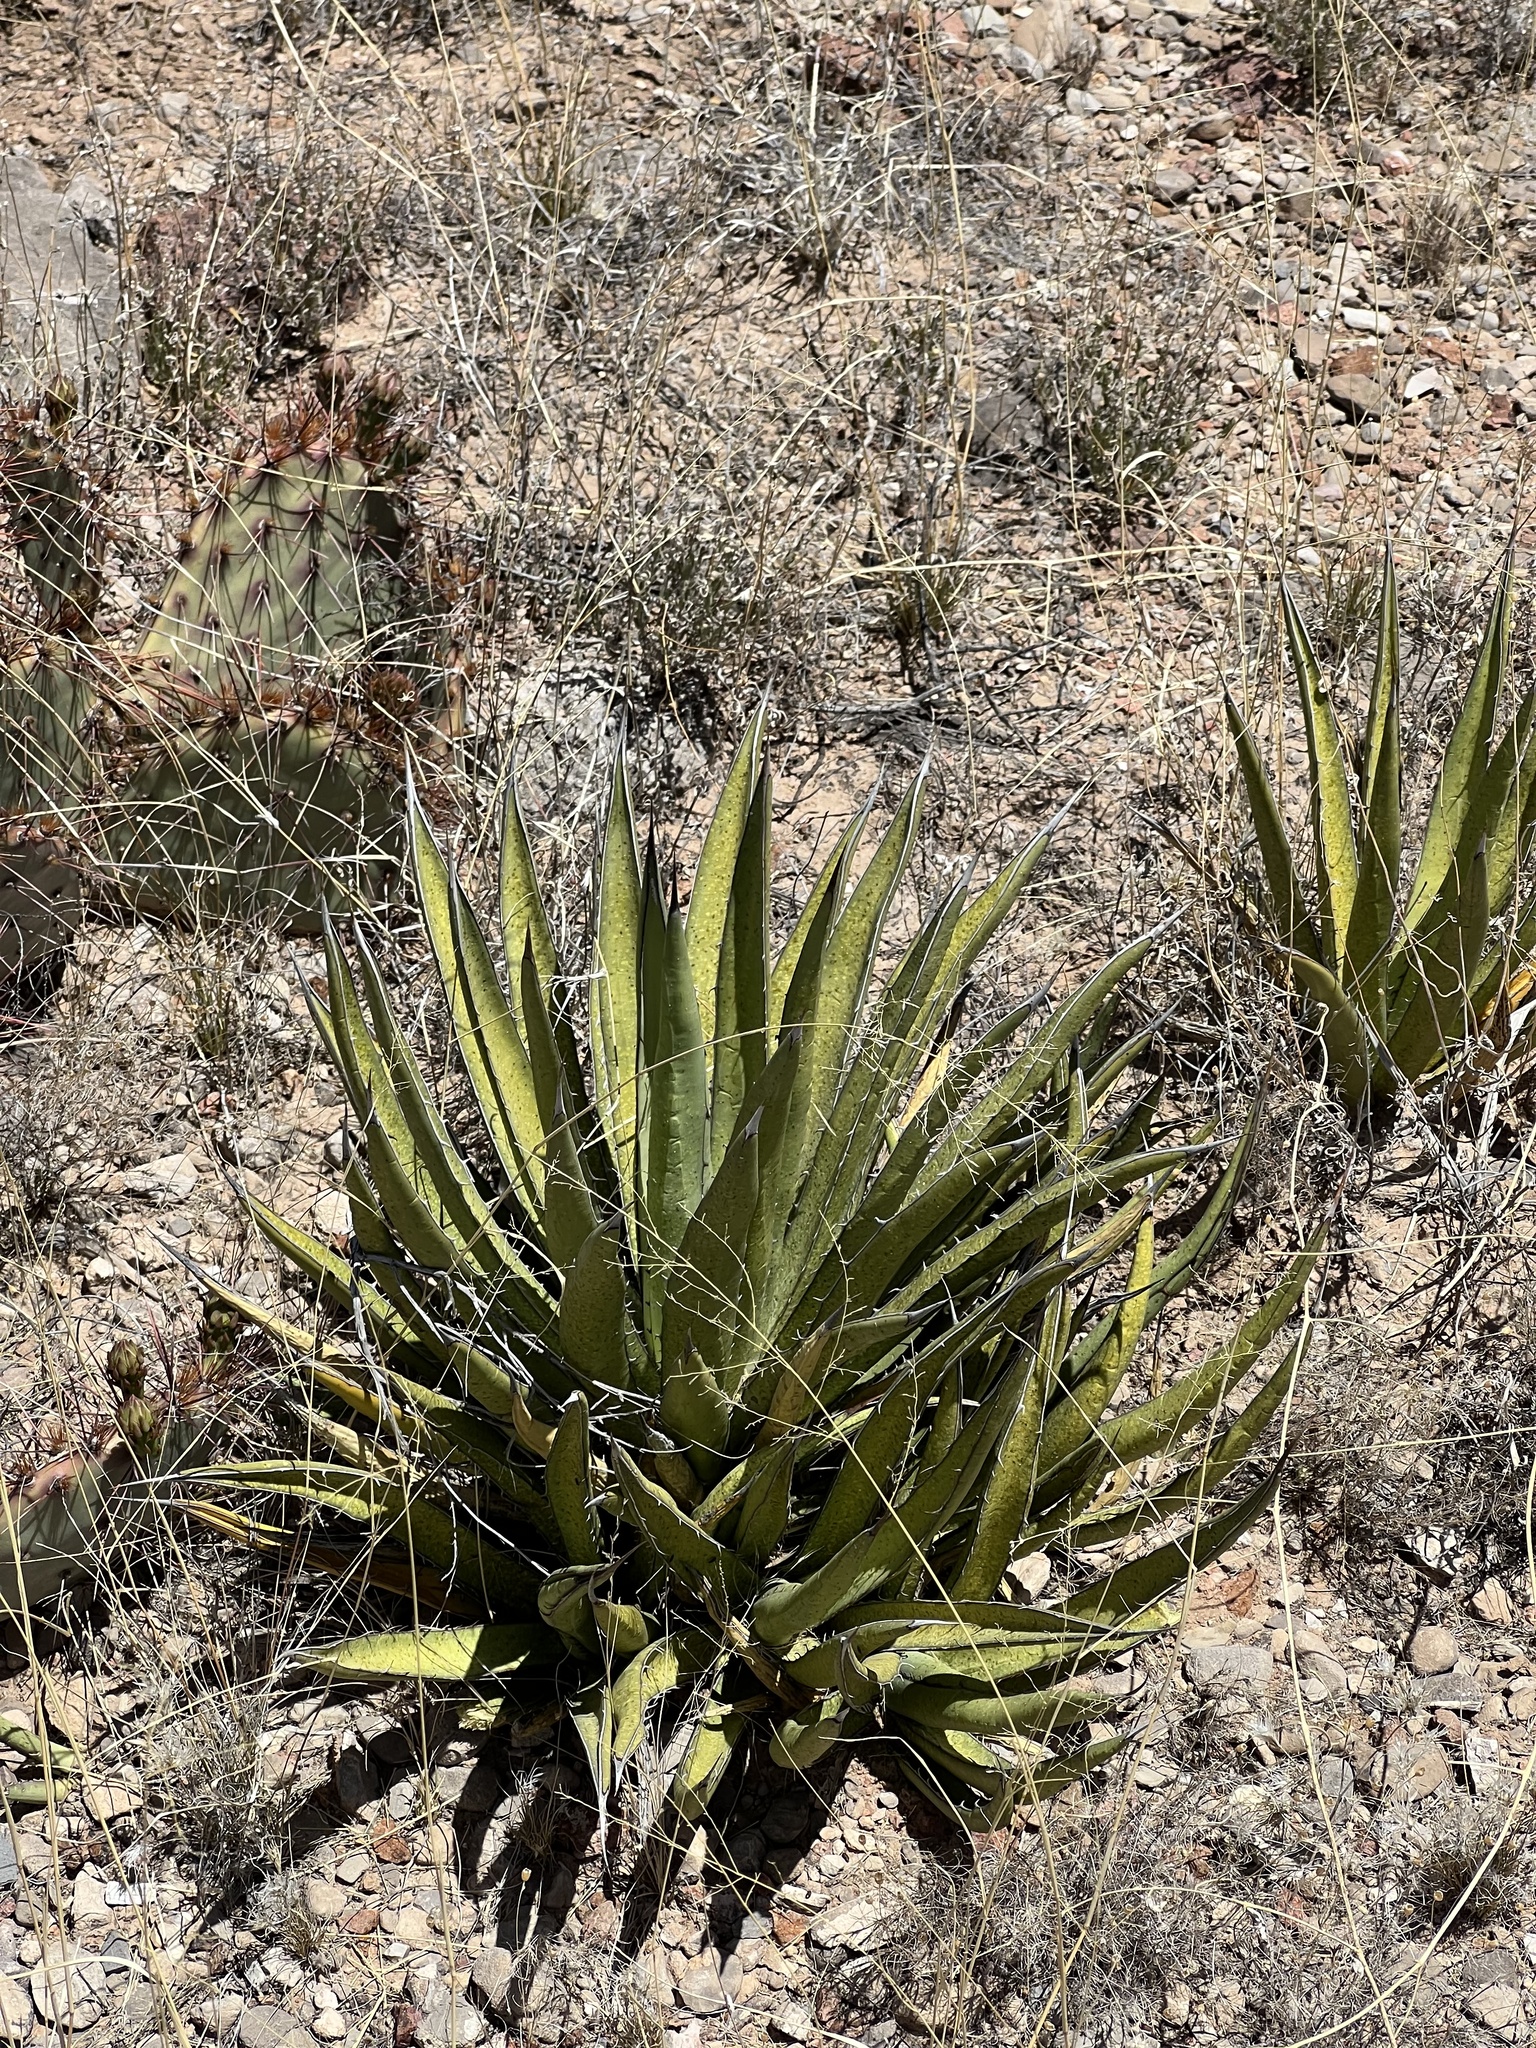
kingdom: Plantae
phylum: Tracheophyta
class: Liliopsida
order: Asparagales
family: Asparagaceae
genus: Agave
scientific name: Agave lechuguilla
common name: Lecheguilla agave
